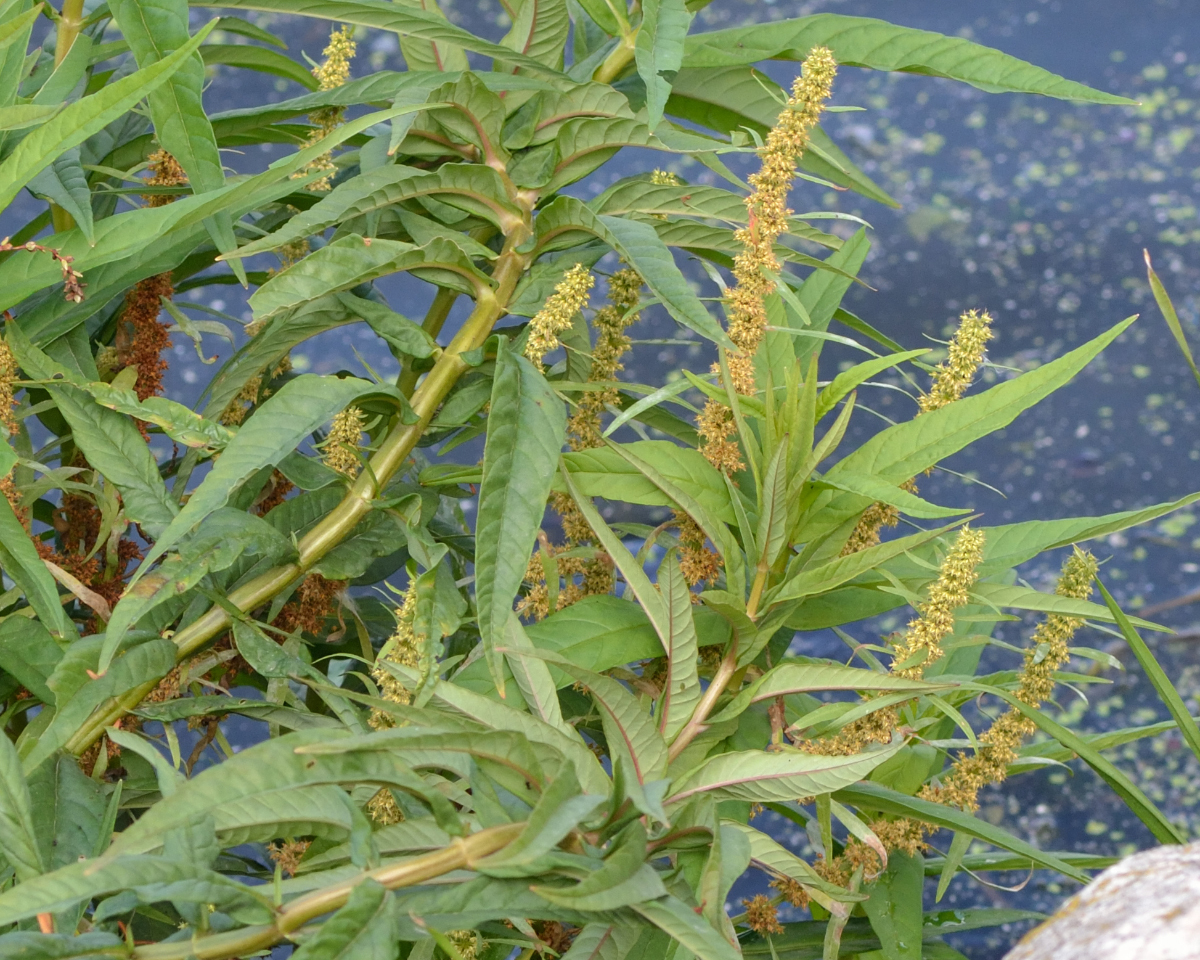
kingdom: Plantae
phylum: Tracheophyta
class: Magnoliopsida
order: Caryophyllales
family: Polygonaceae
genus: Rumex
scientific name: Rumex maritimus
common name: Golden dock
